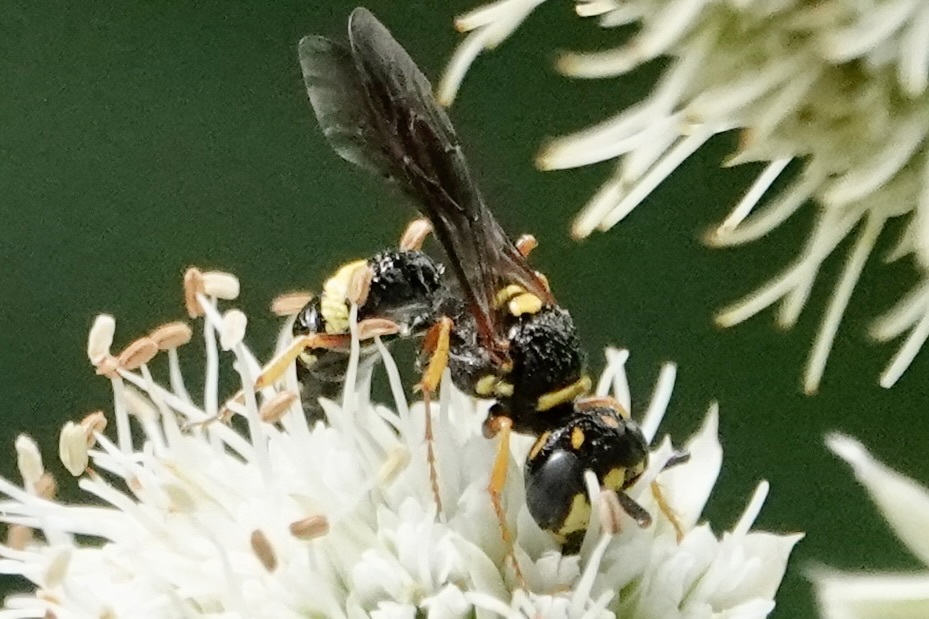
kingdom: Animalia
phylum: Arthropoda
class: Insecta
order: Hymenoptera
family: Crabronidae
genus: Philanthus
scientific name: Philanthus gibbosus
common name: Humped beewolf
